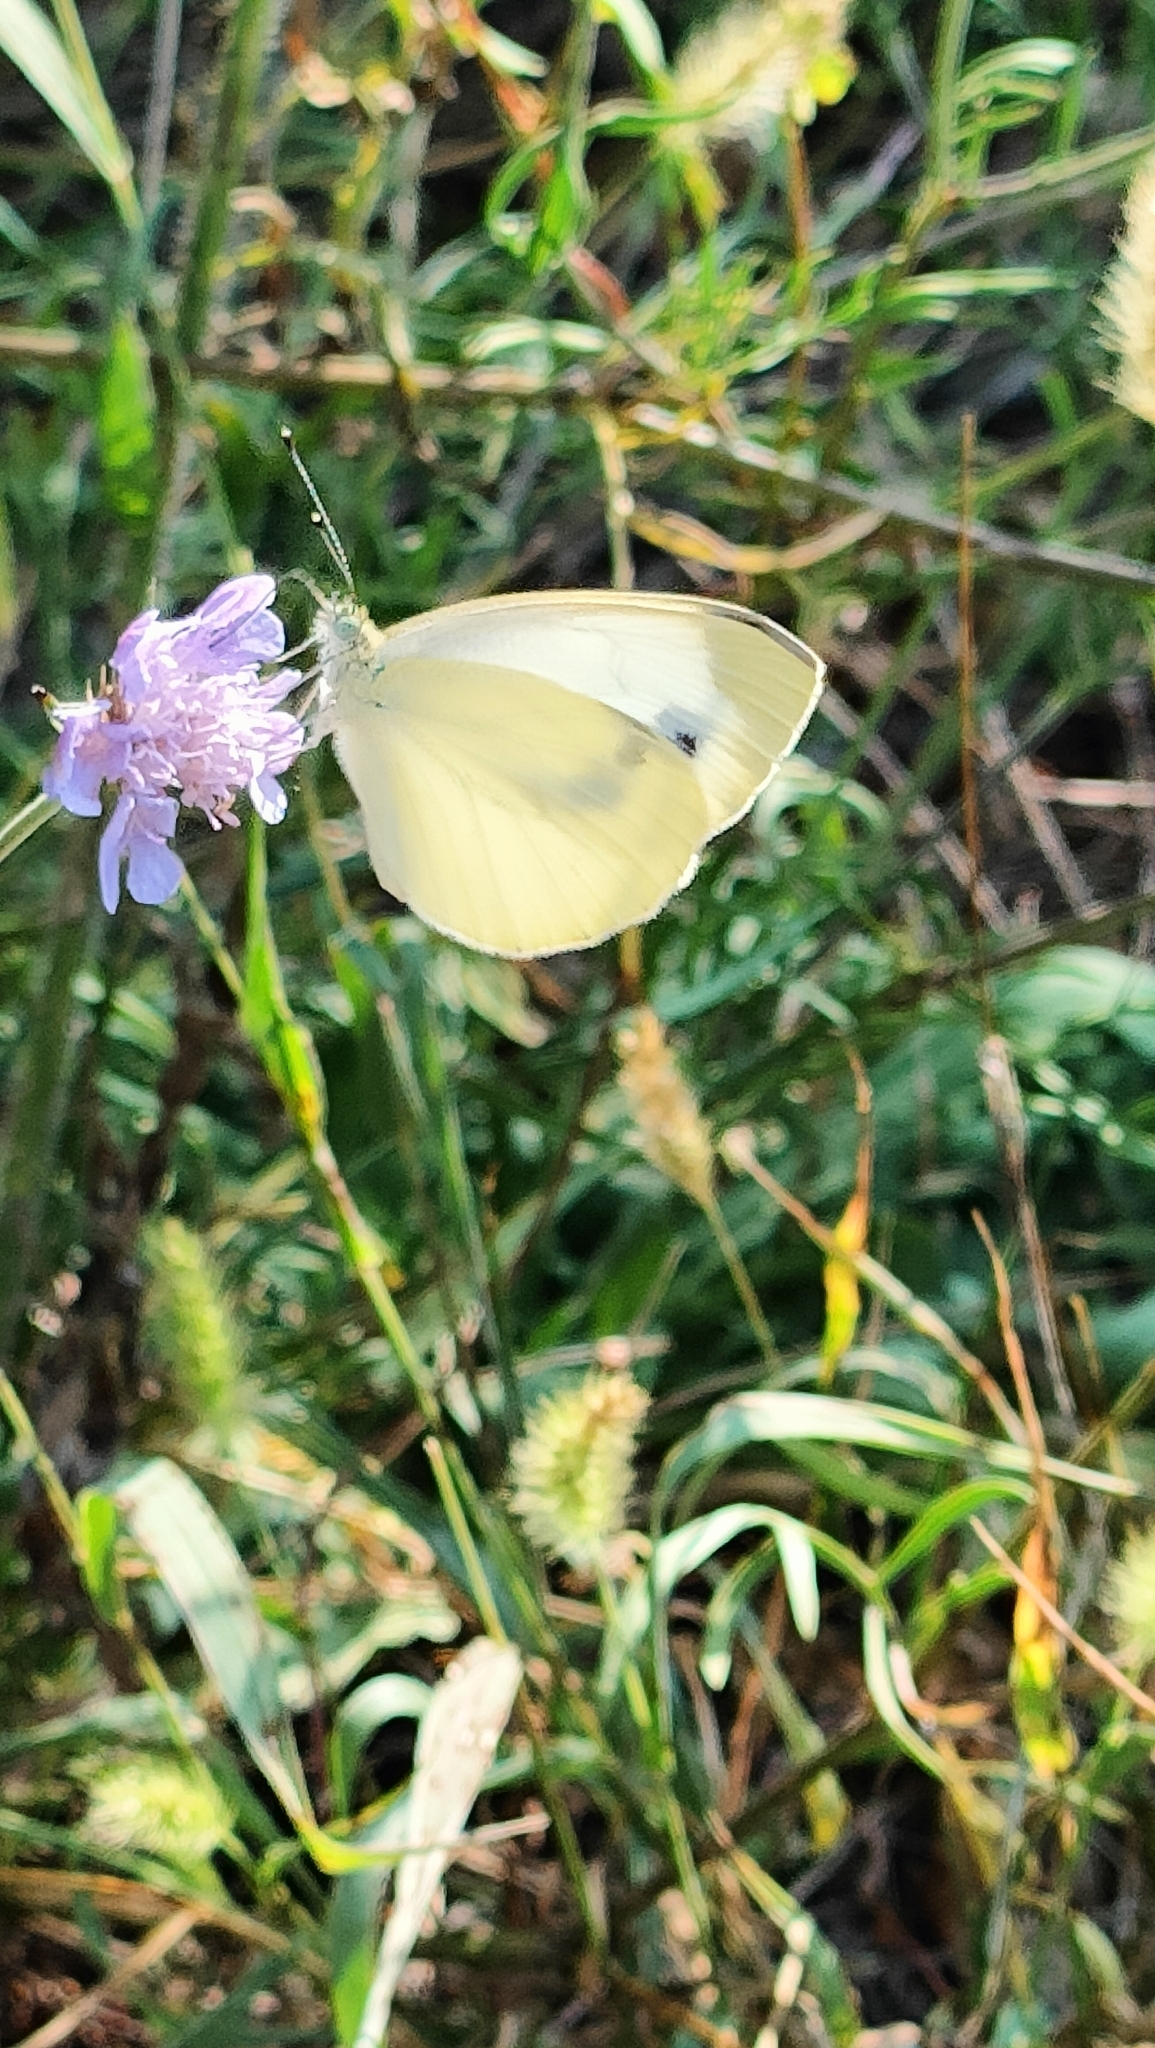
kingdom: Animalia
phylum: Arthropoda
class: Insecta
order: Lepidoptera
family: Pieridae
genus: Pieris
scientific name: Pieris mannii
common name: Southern small white
